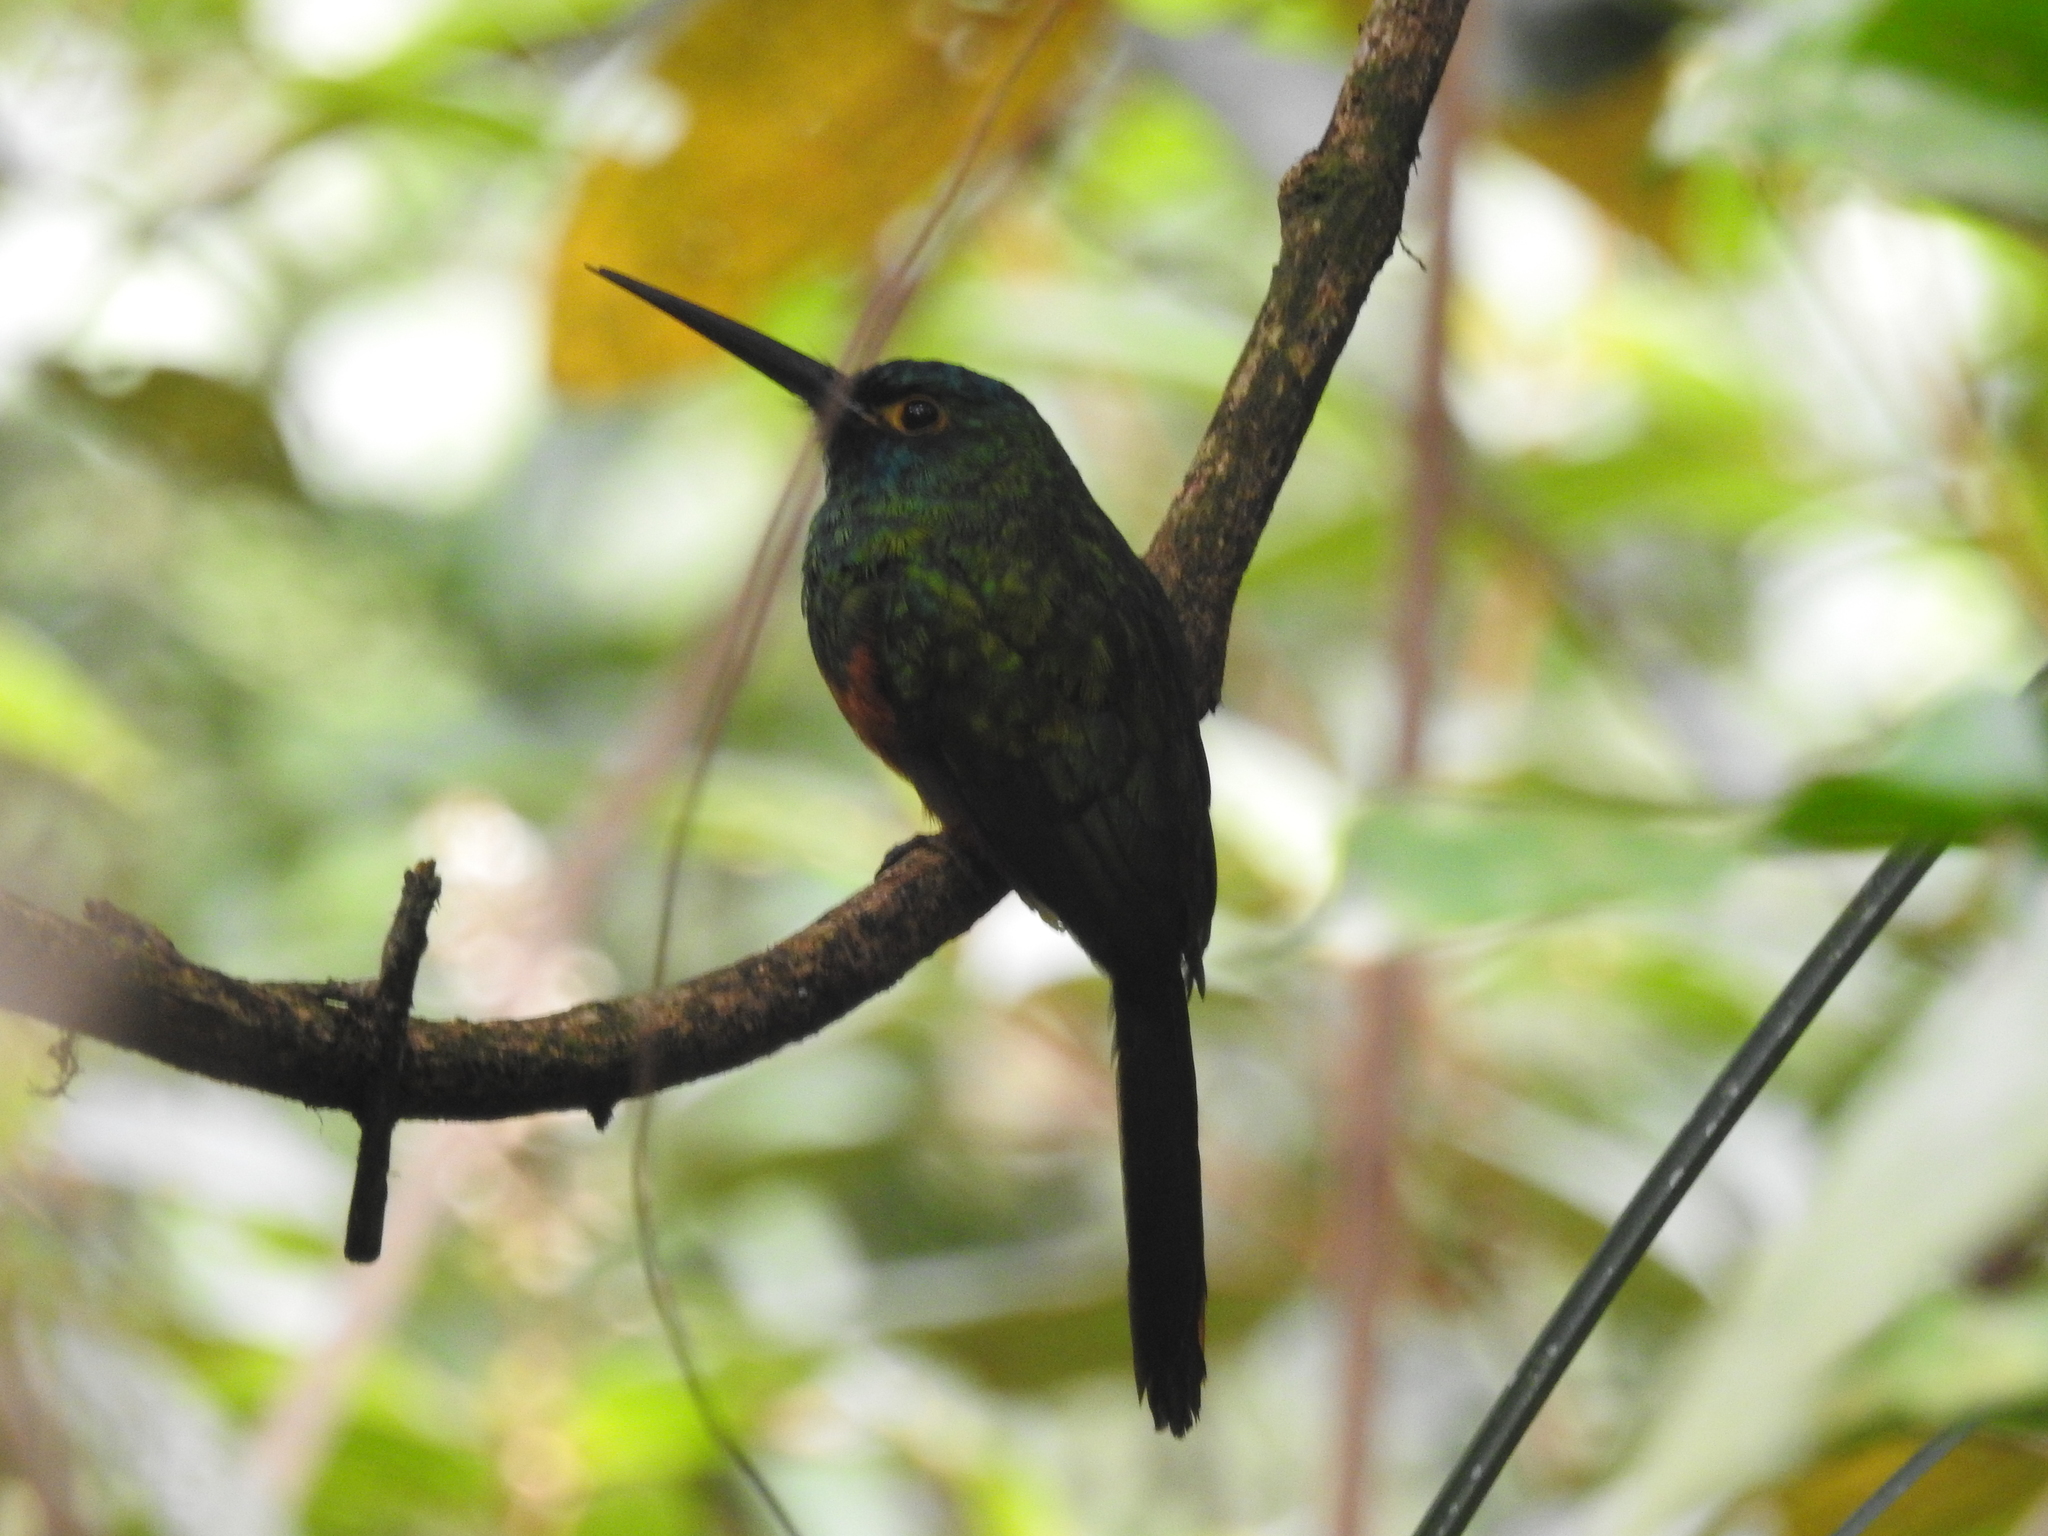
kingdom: Animalia
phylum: Chordata
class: Aves
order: Piciformes
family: Galbulidae
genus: Galbula
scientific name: Galbula pastazae
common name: Coppery-chested jacamar
